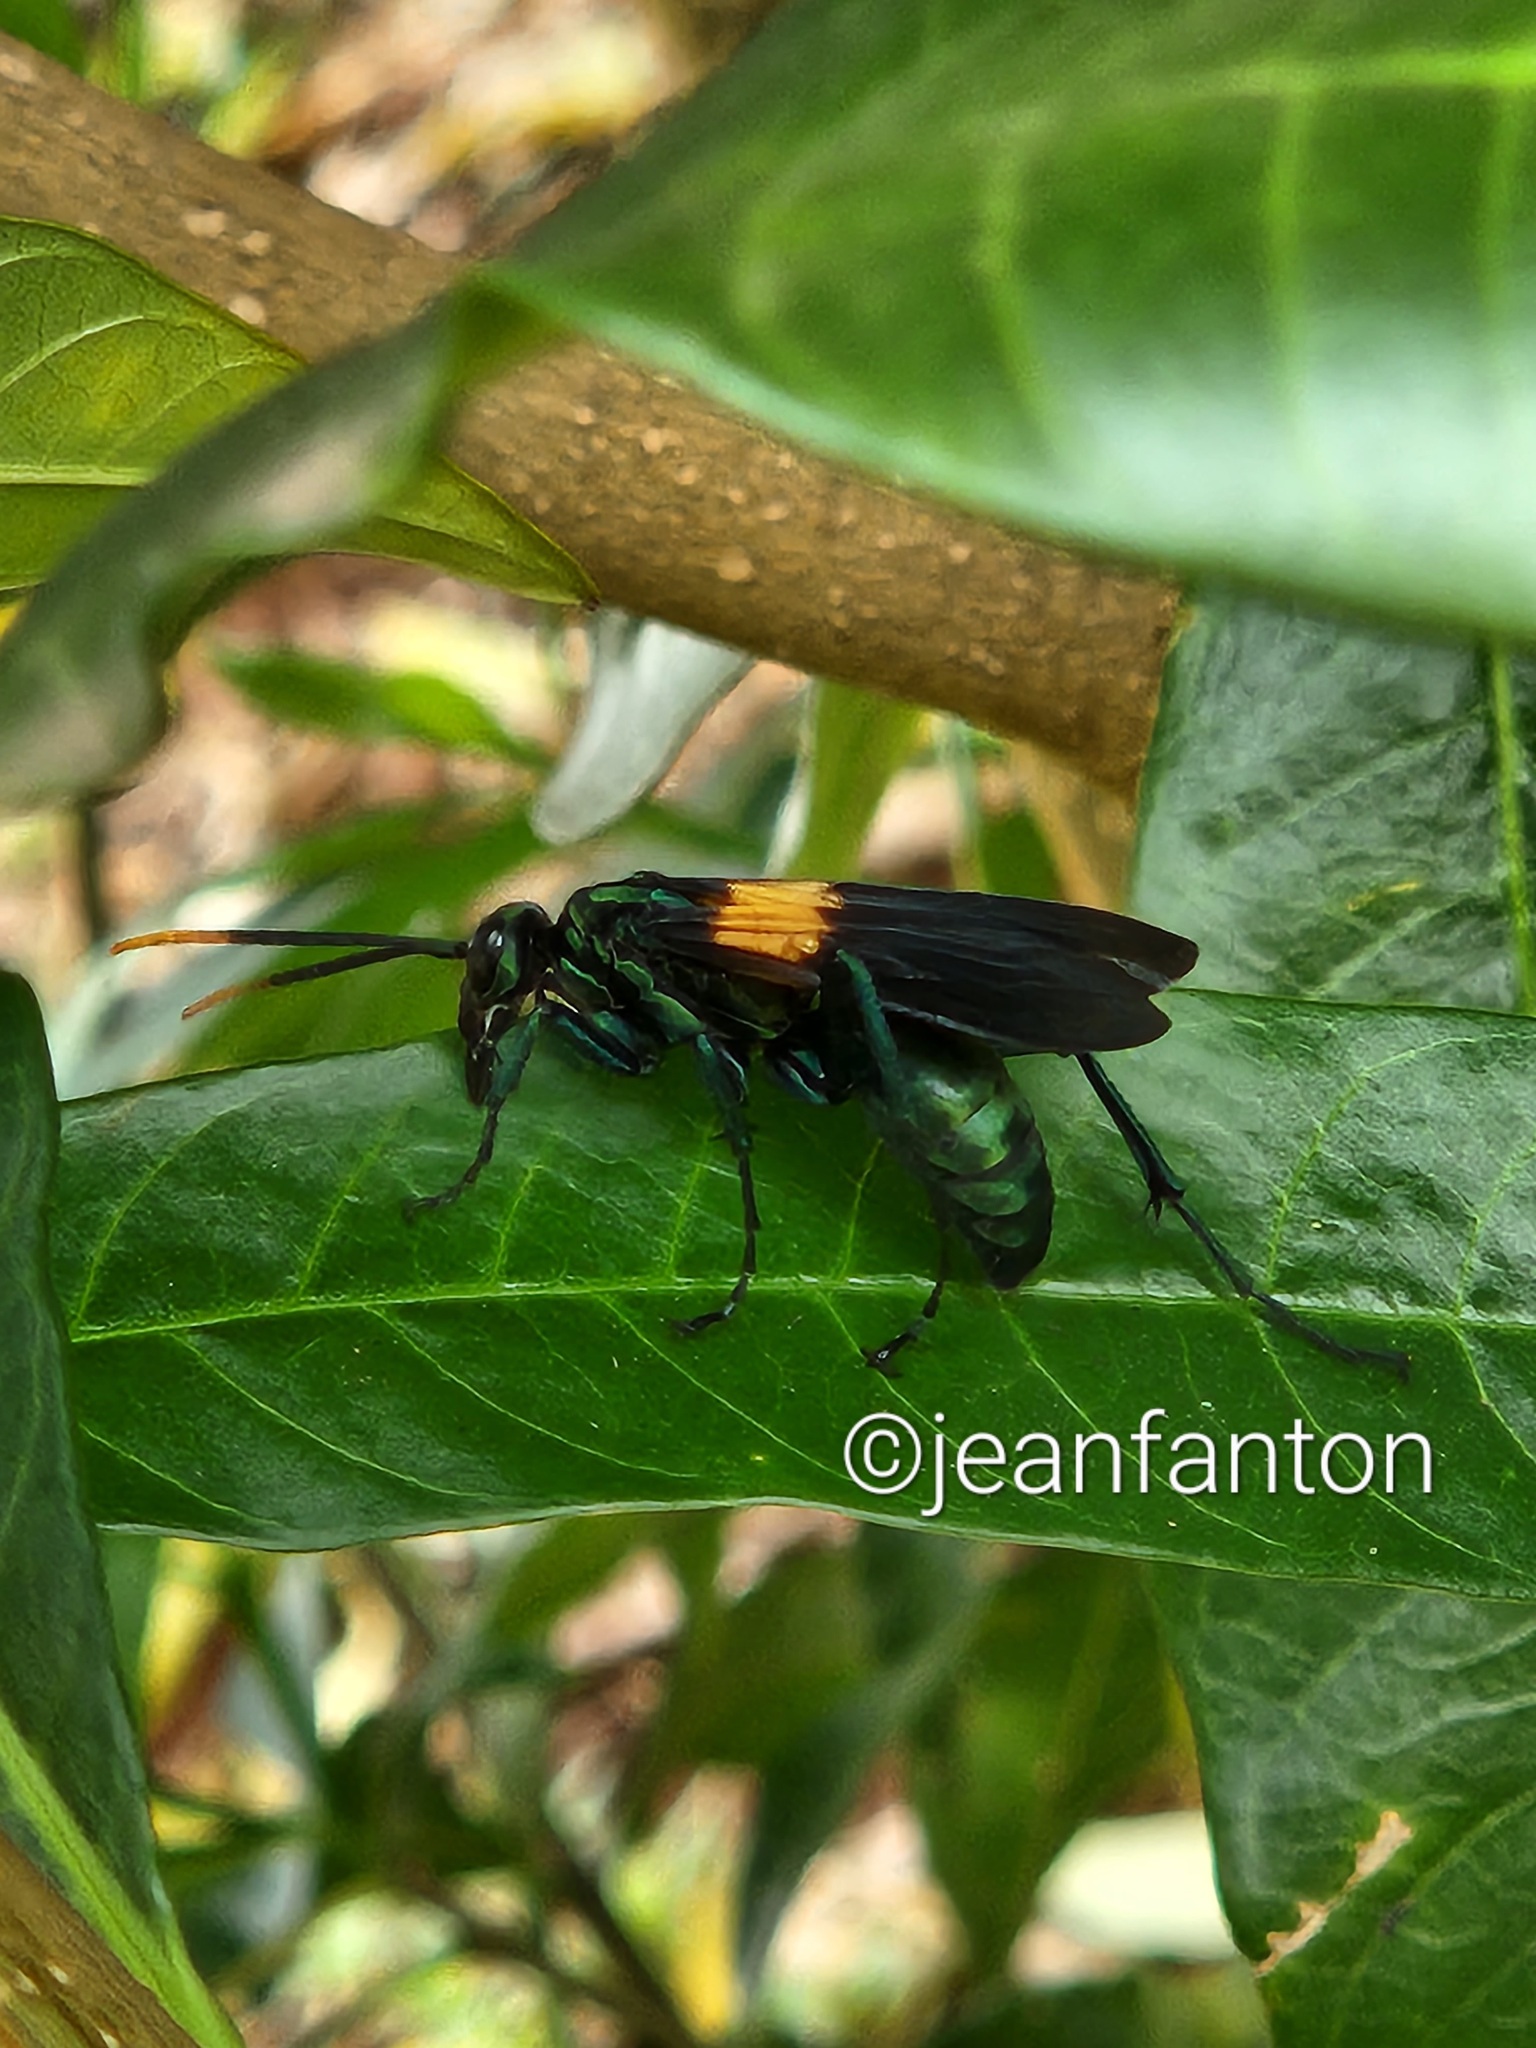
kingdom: Animalia
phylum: Arthropoda
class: Insecta
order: Hymenoptera
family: Pompilidae
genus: Pepsis
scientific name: Pepsis completa
